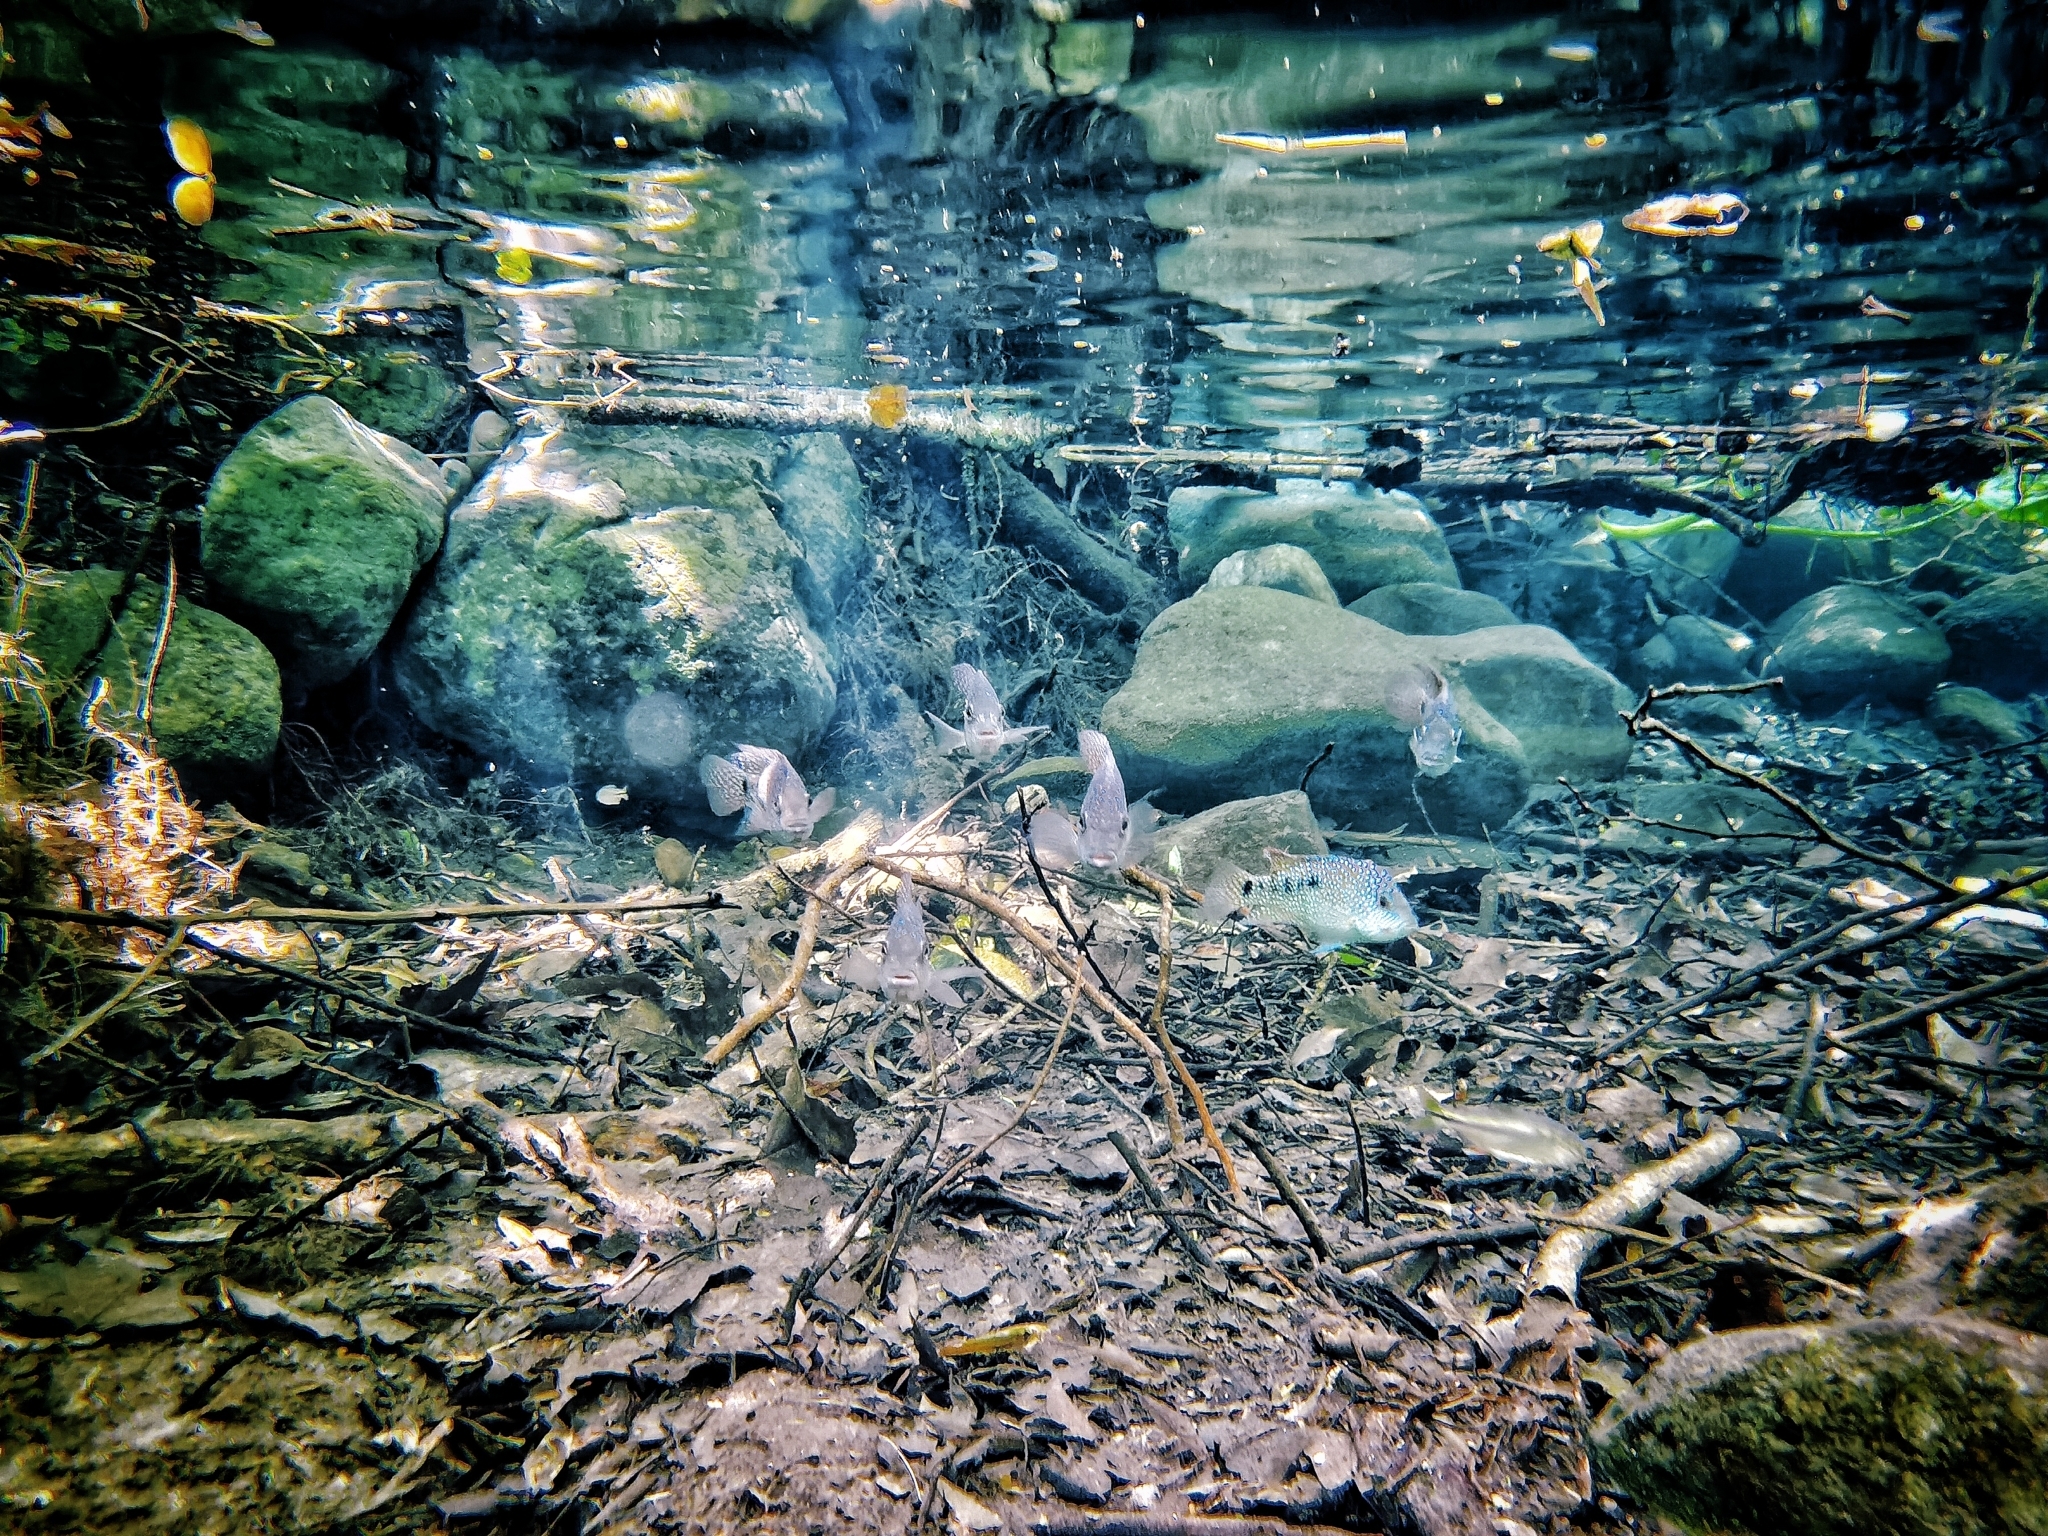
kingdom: Animalia
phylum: Chordata
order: Perciformes
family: Cichlidae
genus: Herichthys
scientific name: Herichthys carpintis
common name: Lowland cichlid
